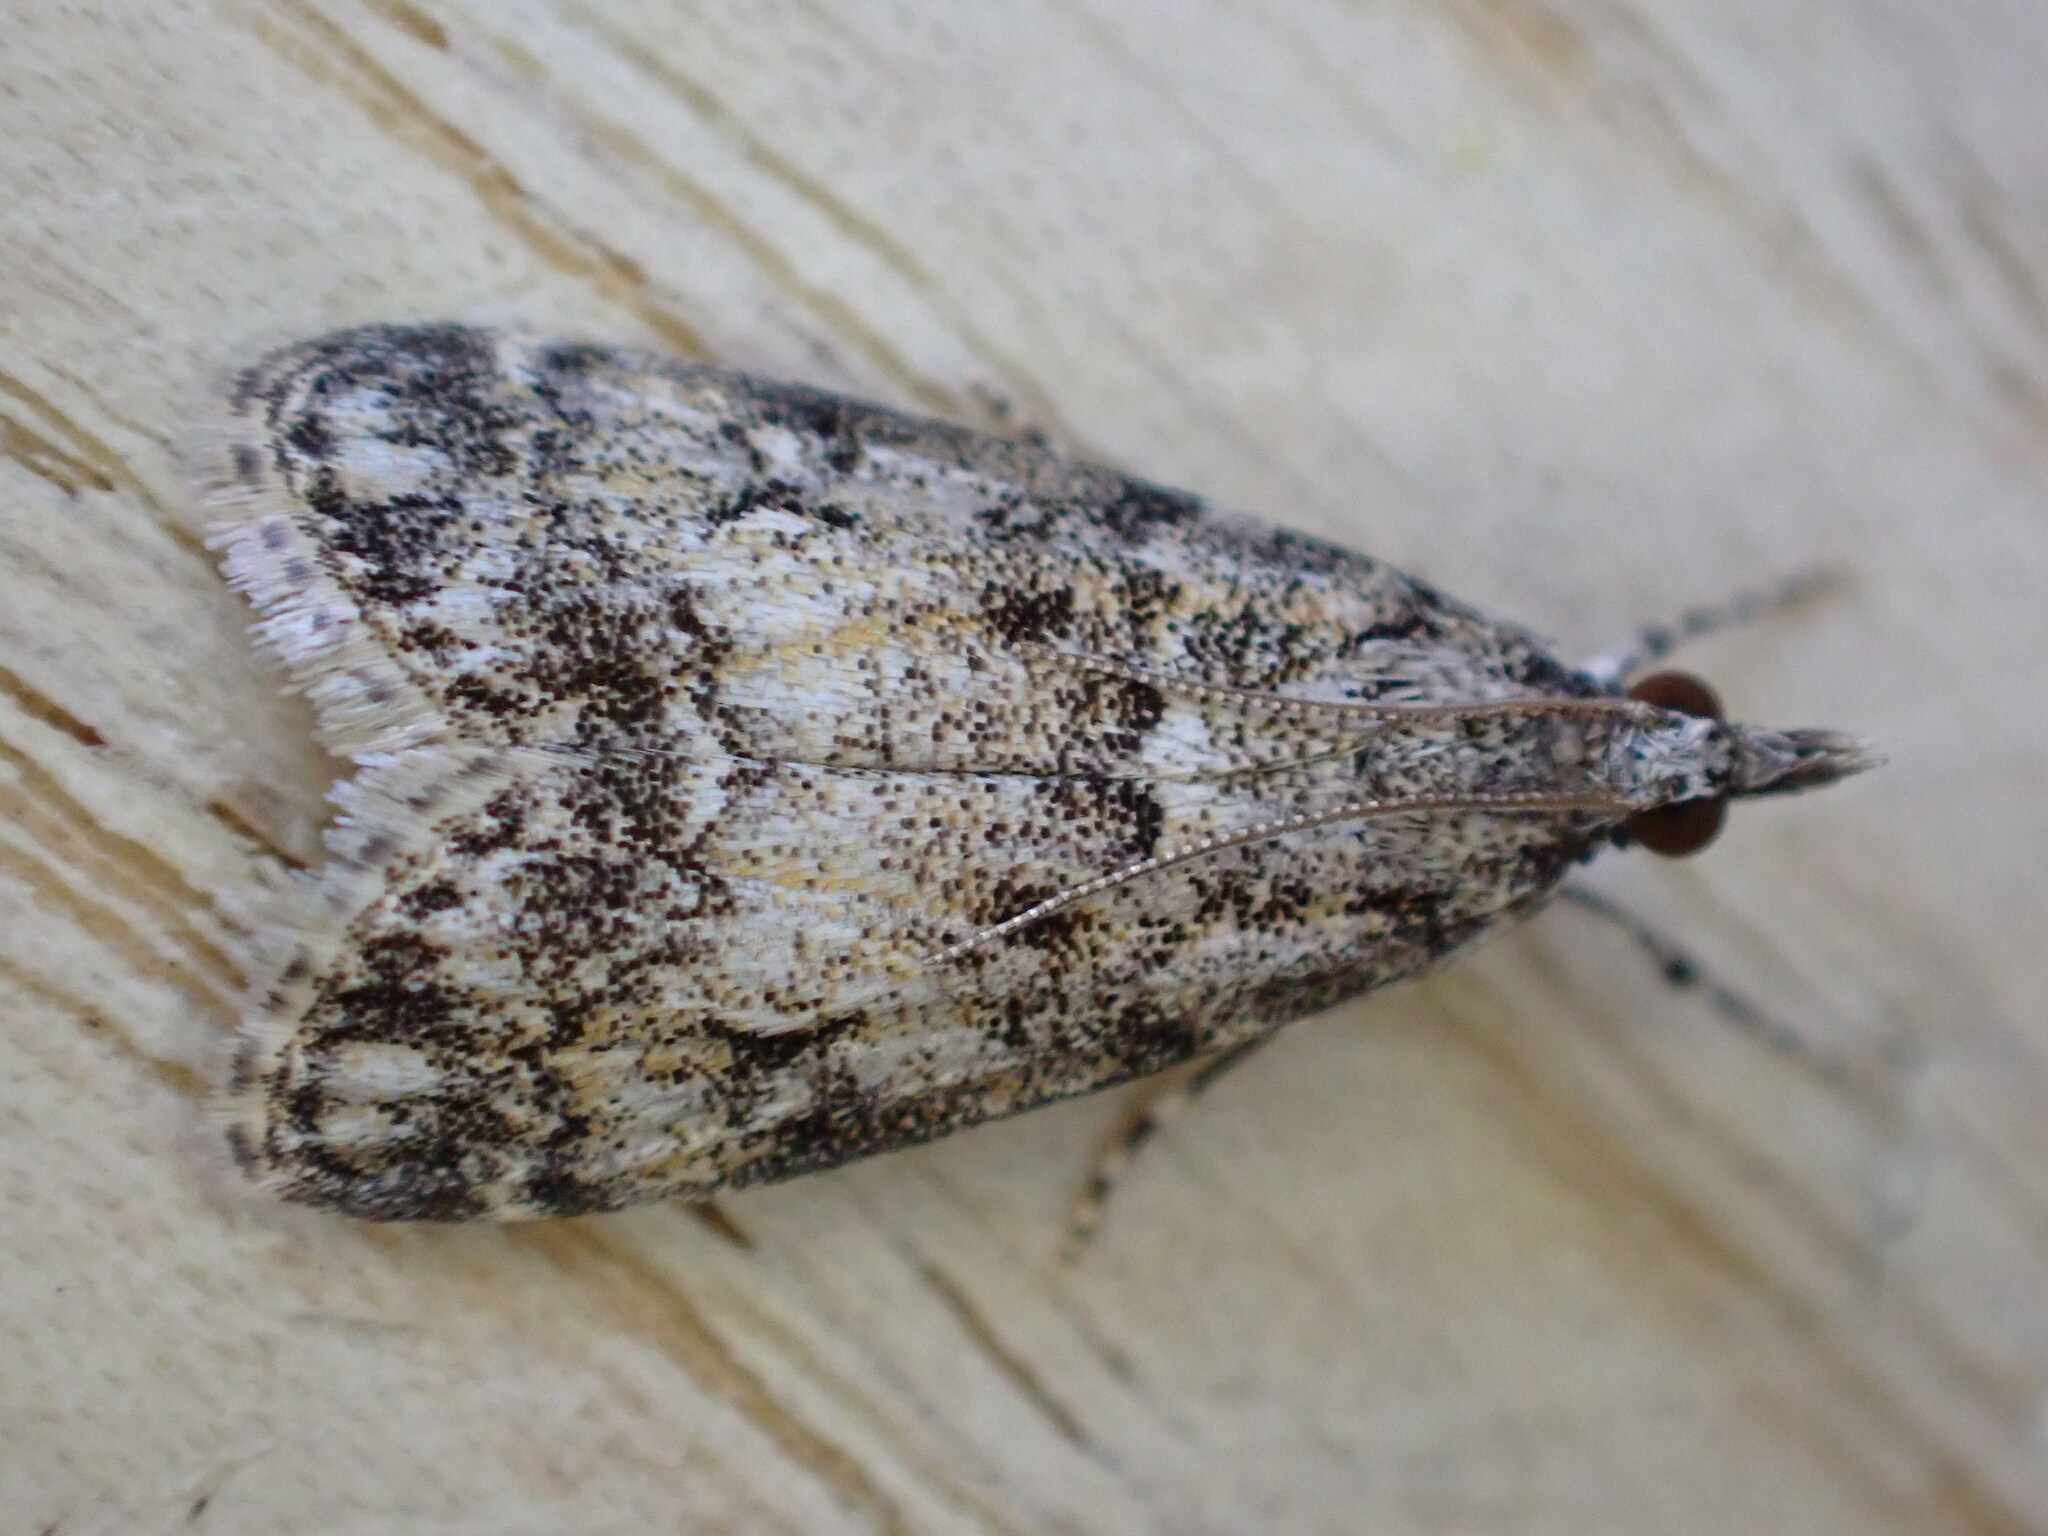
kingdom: Animalia
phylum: Arthropoda
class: Insecta
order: Lepidoptera
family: Crambidae
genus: Eudonia
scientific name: Eudonia lacustrata
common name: Little grey
